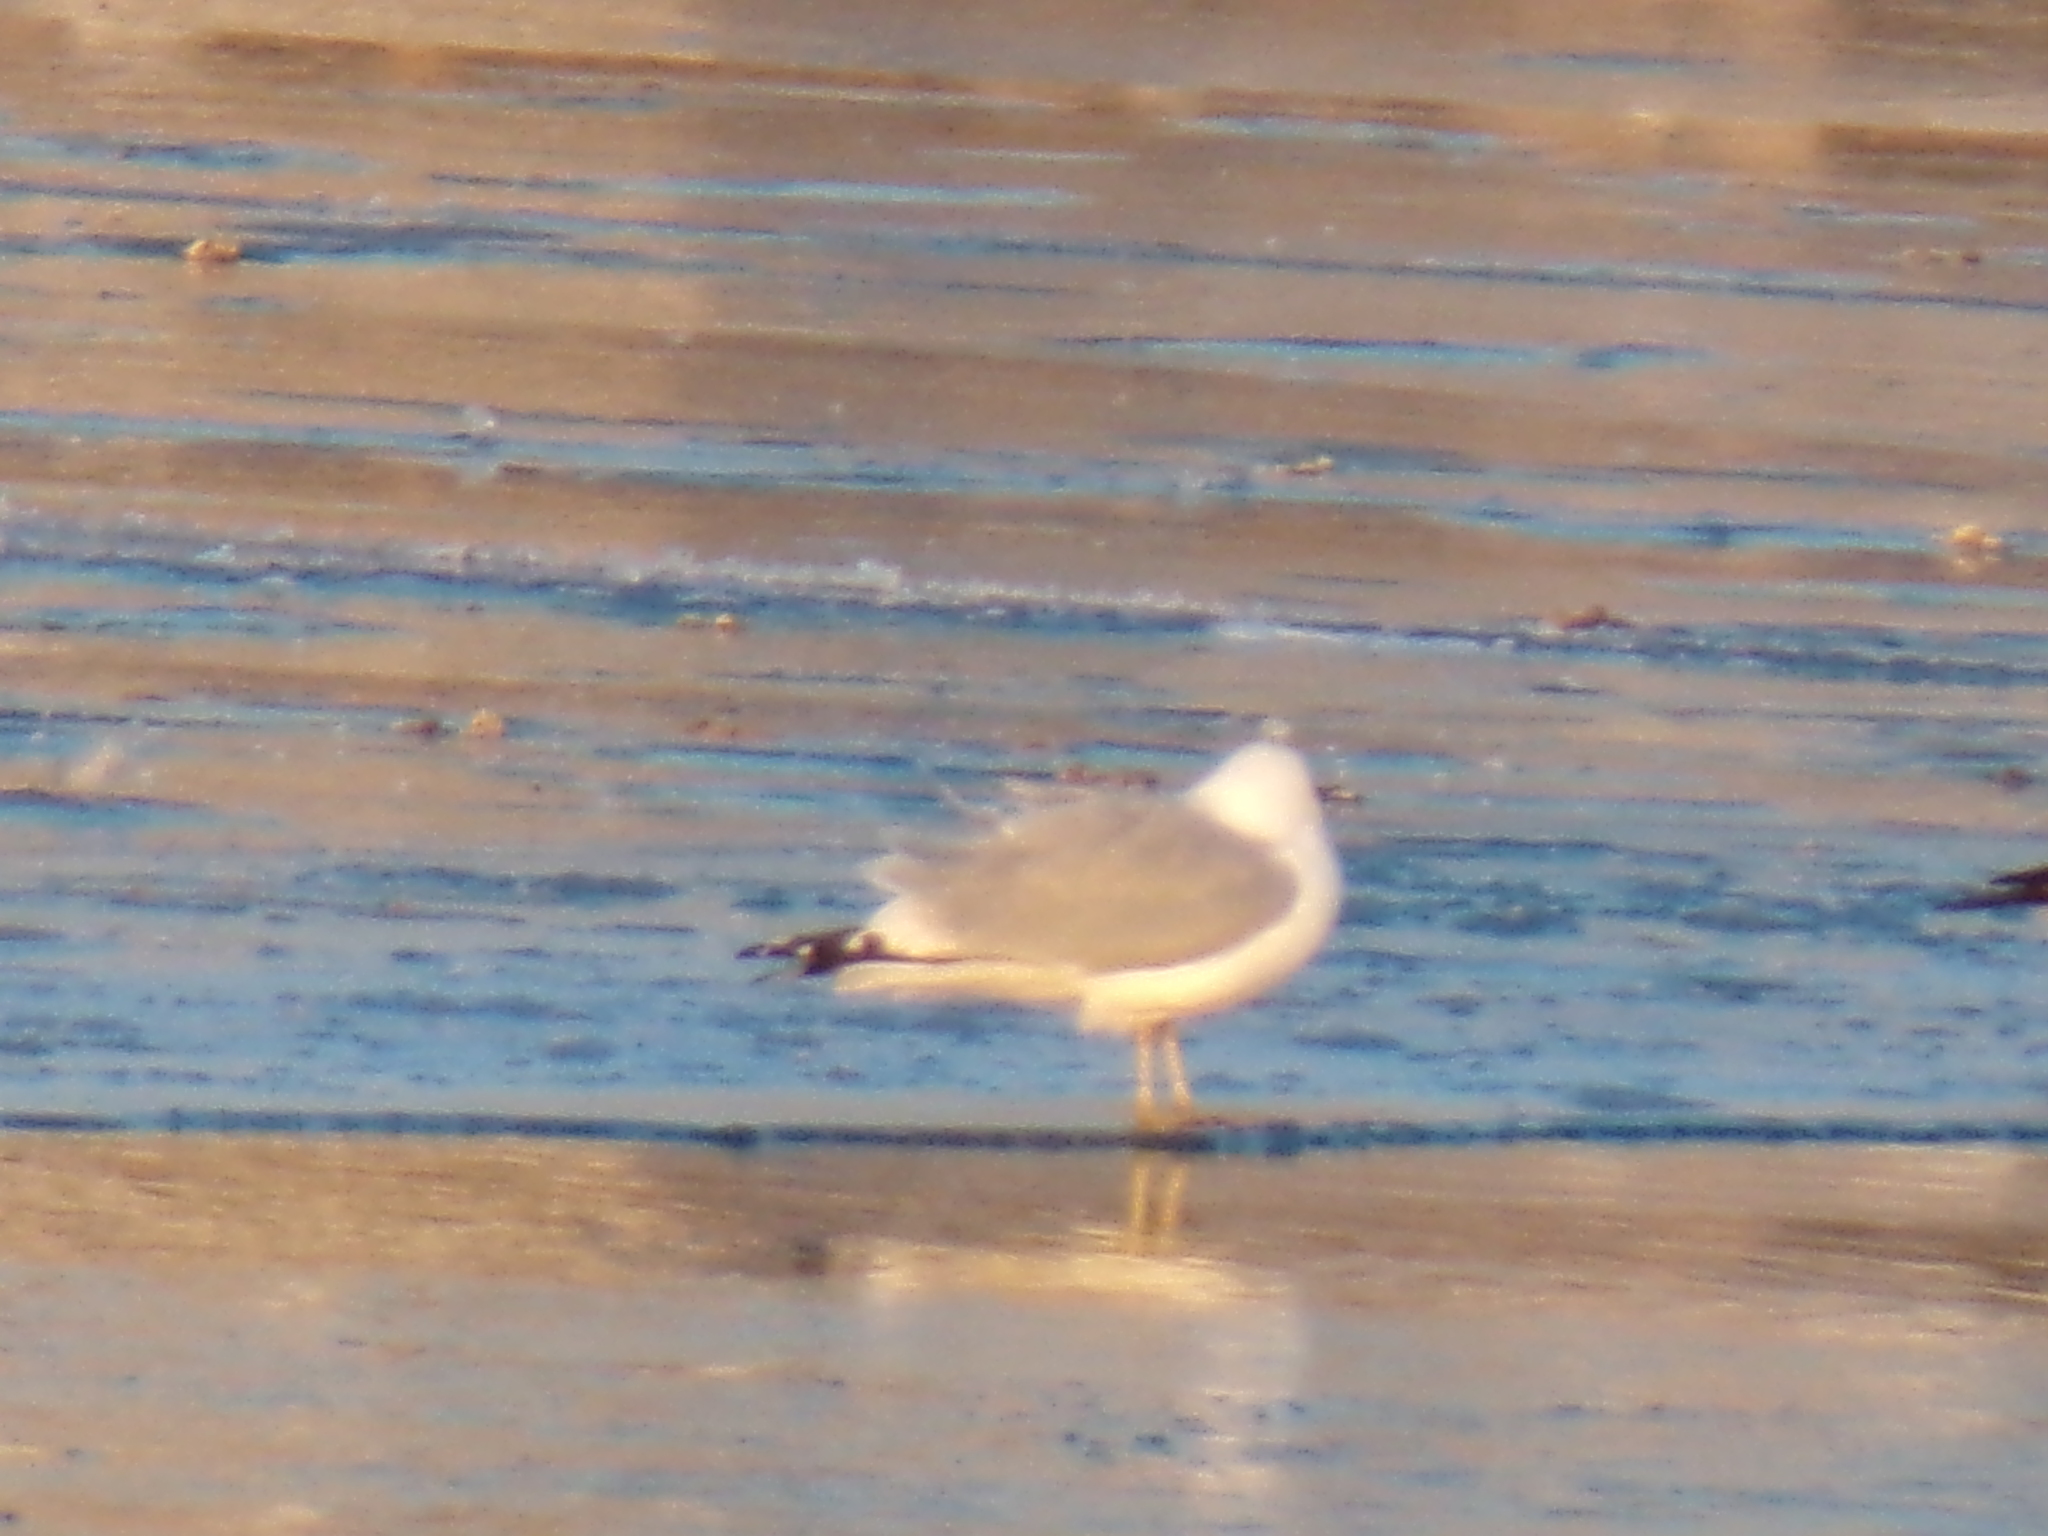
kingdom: Animalia
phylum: Chordata
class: Aves
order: Charadriiformes
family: Laridae
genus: Larus
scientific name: Larus delawarensis
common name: Ring-billed gull
